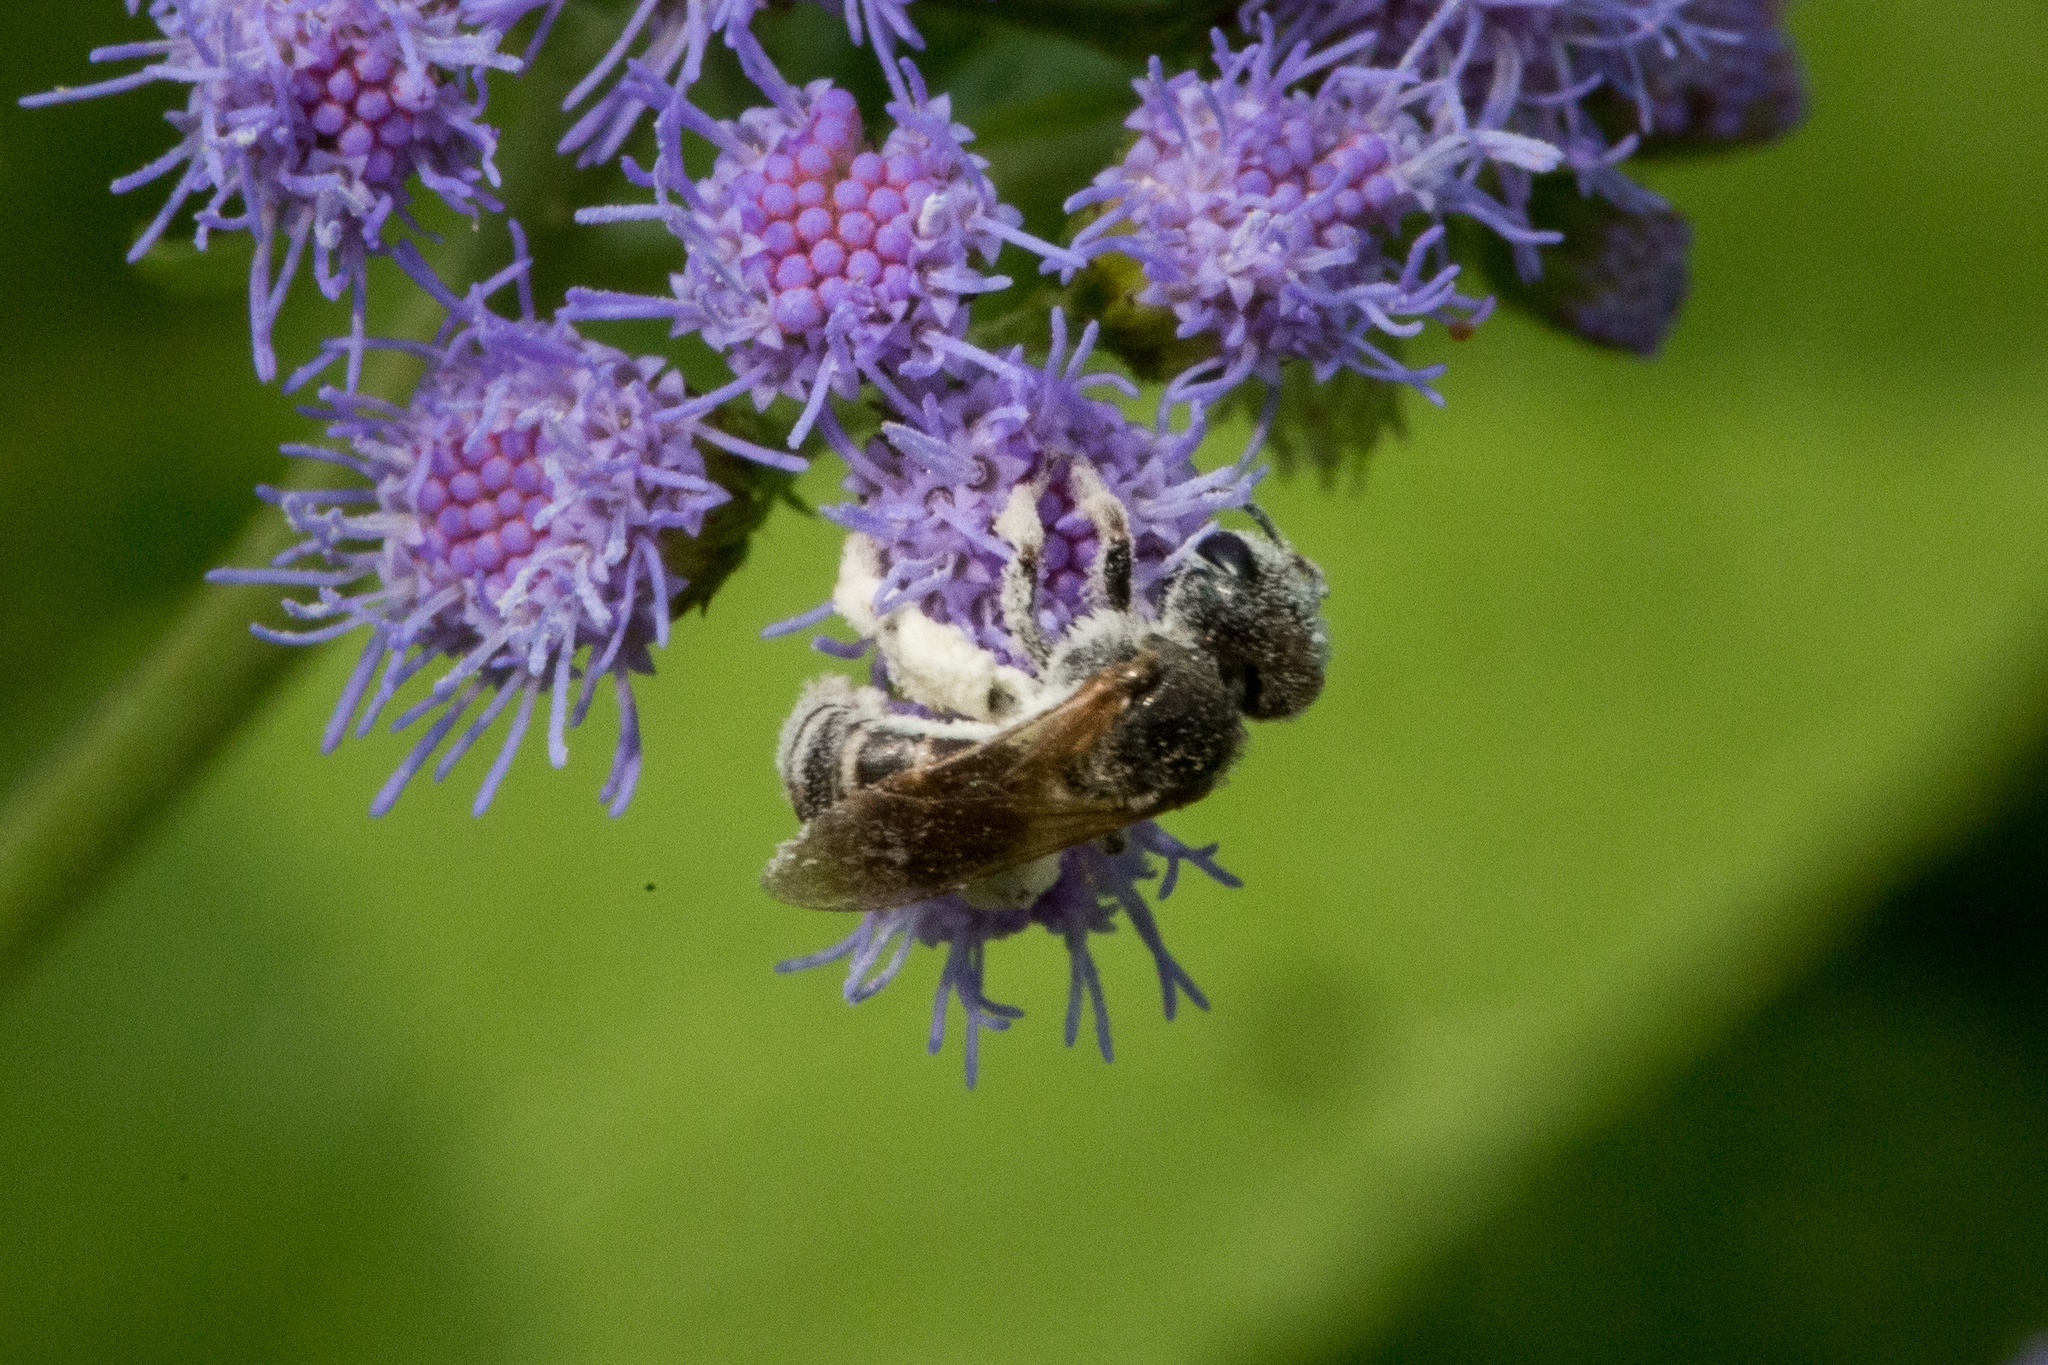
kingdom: Animalia
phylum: Arthropoda
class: Insecta
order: Hymenoptera
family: Halictidae
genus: Halictus
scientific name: Halictus ligatus
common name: Ligated furrow bee
